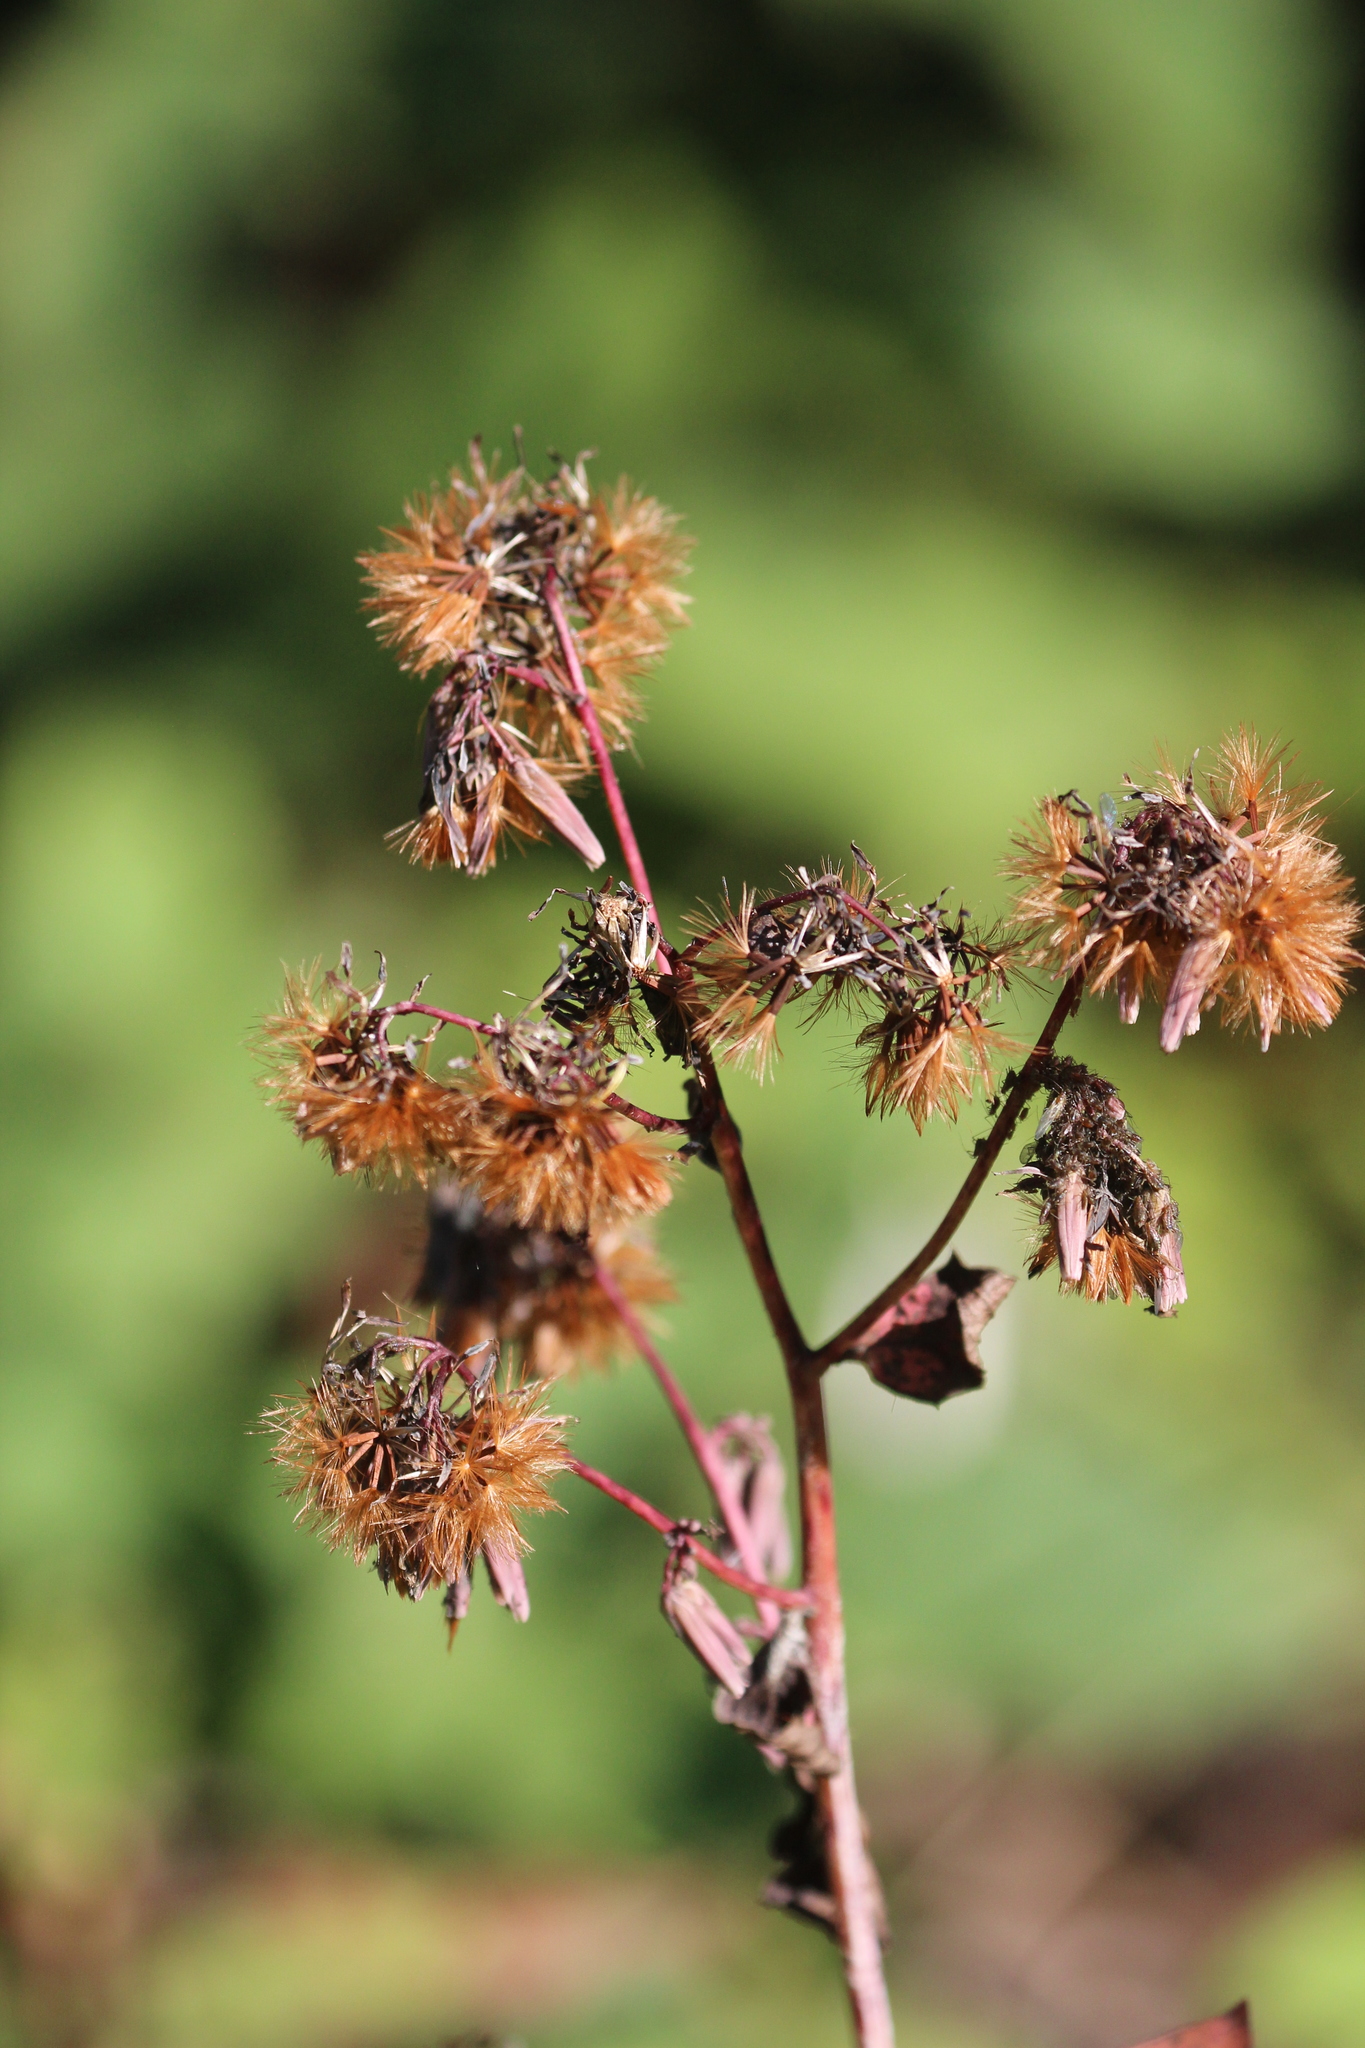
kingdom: Plantae
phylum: Tracheophyta
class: Magnoliopsida
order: Asterales
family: Asteraceae
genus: Nabalus
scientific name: Nabalus albus
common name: White rattlesnakeroot
